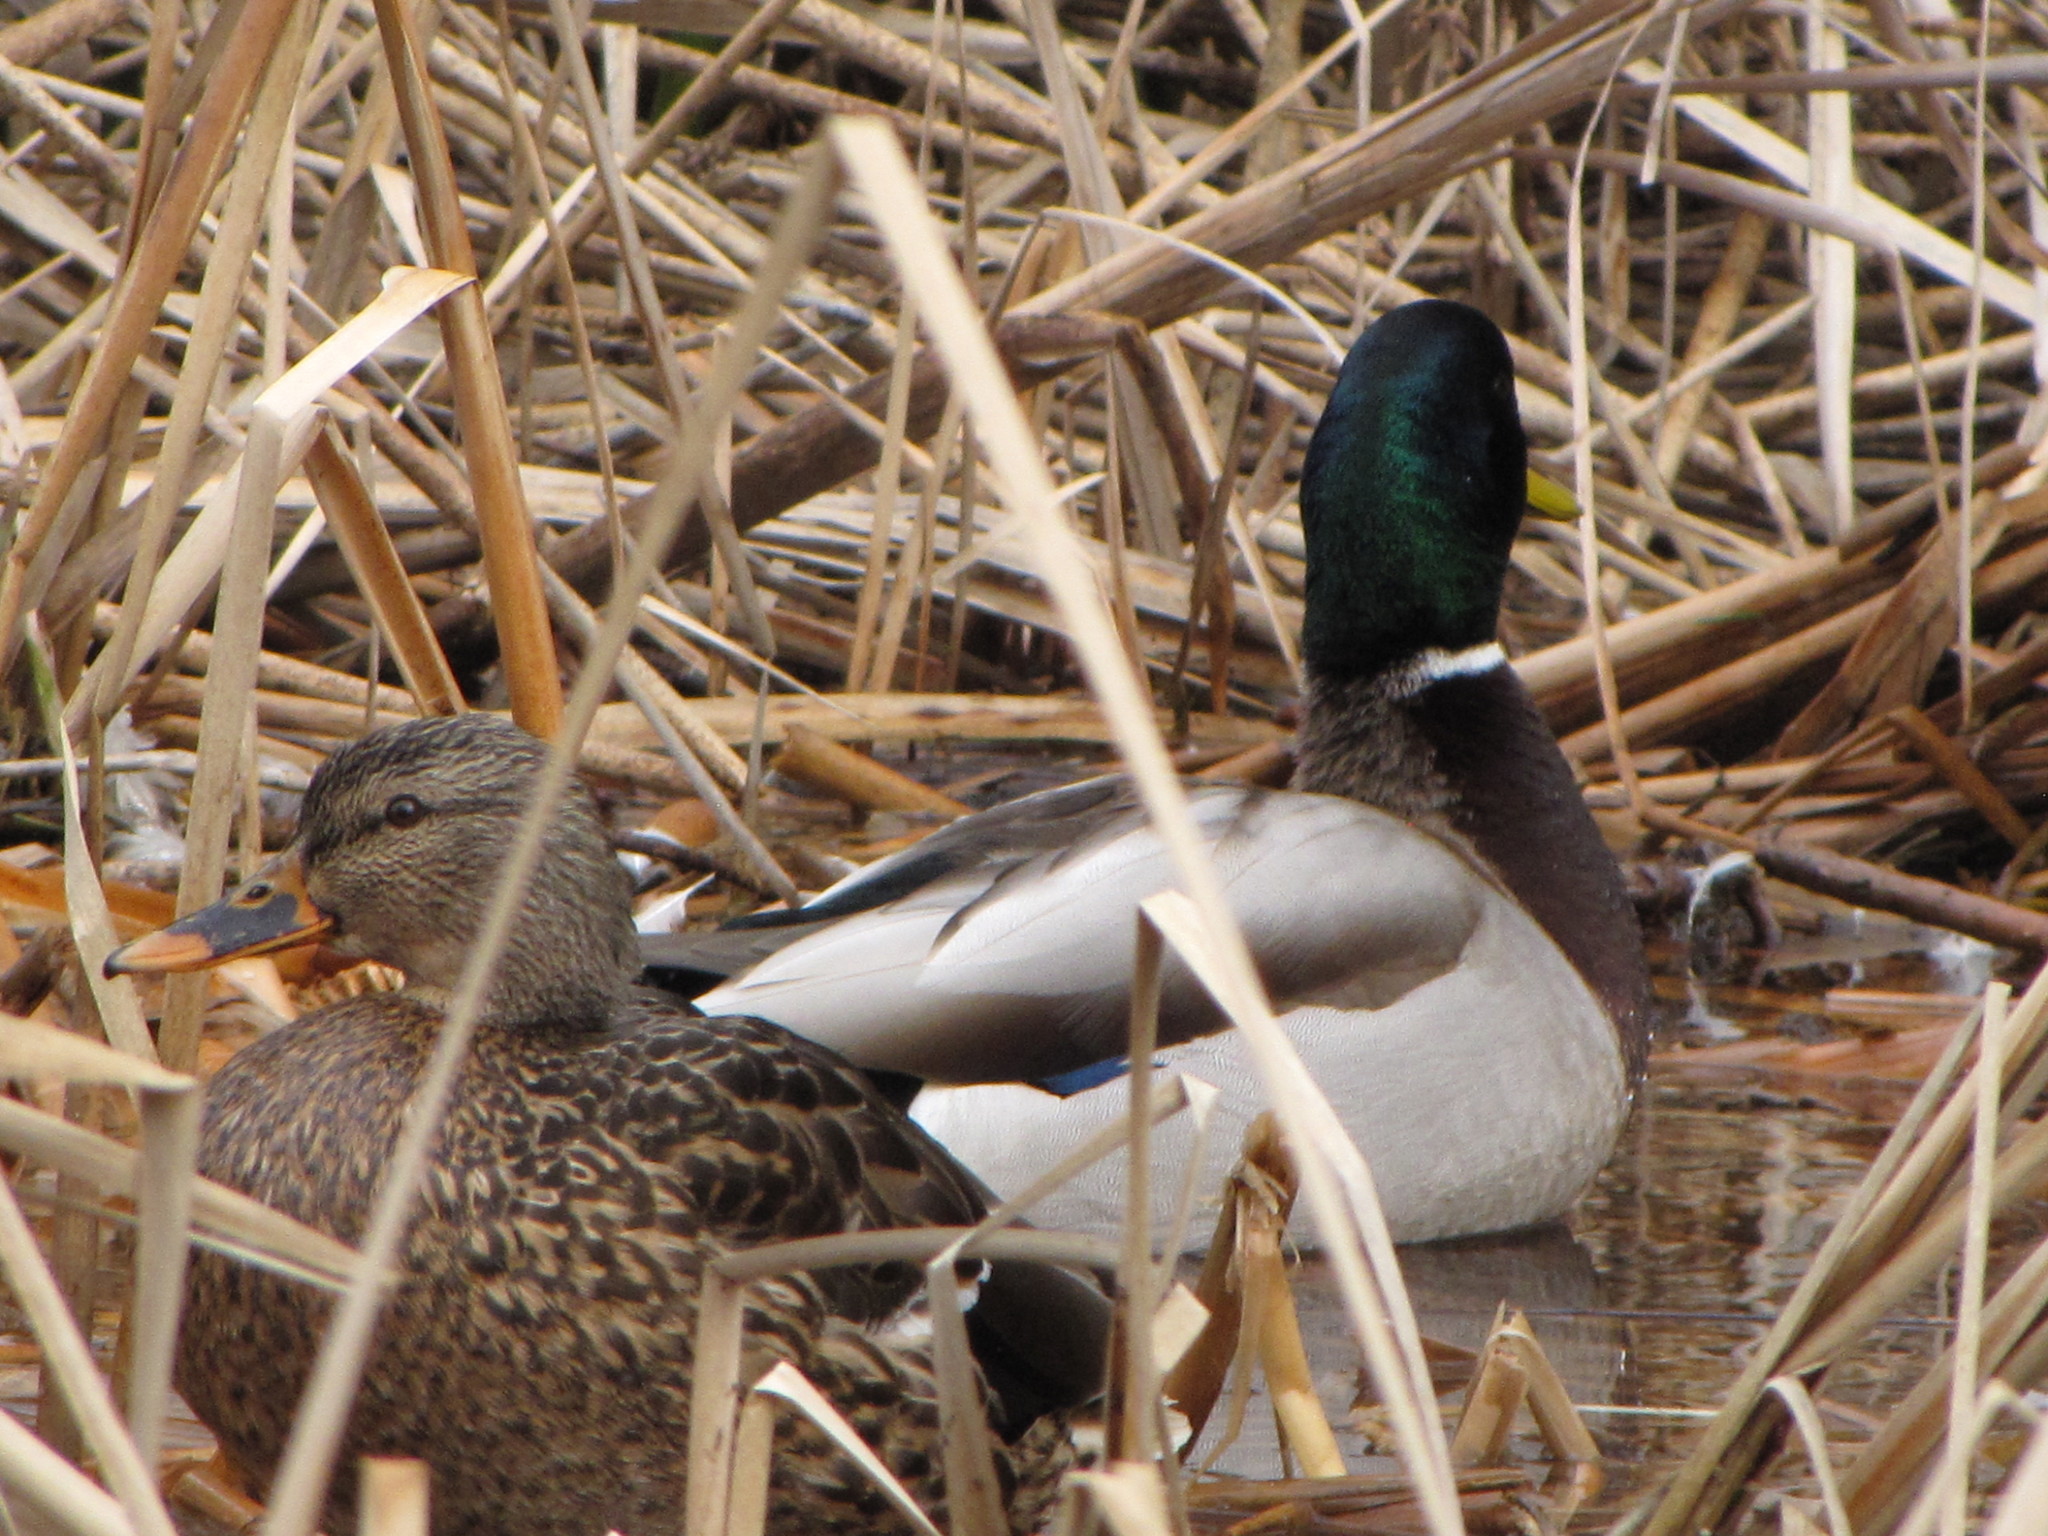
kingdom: Animalia
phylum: Chordata
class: Aves
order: Anseriformes
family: Anatidae
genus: Anas
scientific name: Anas platyrhynchos
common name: Mallard
